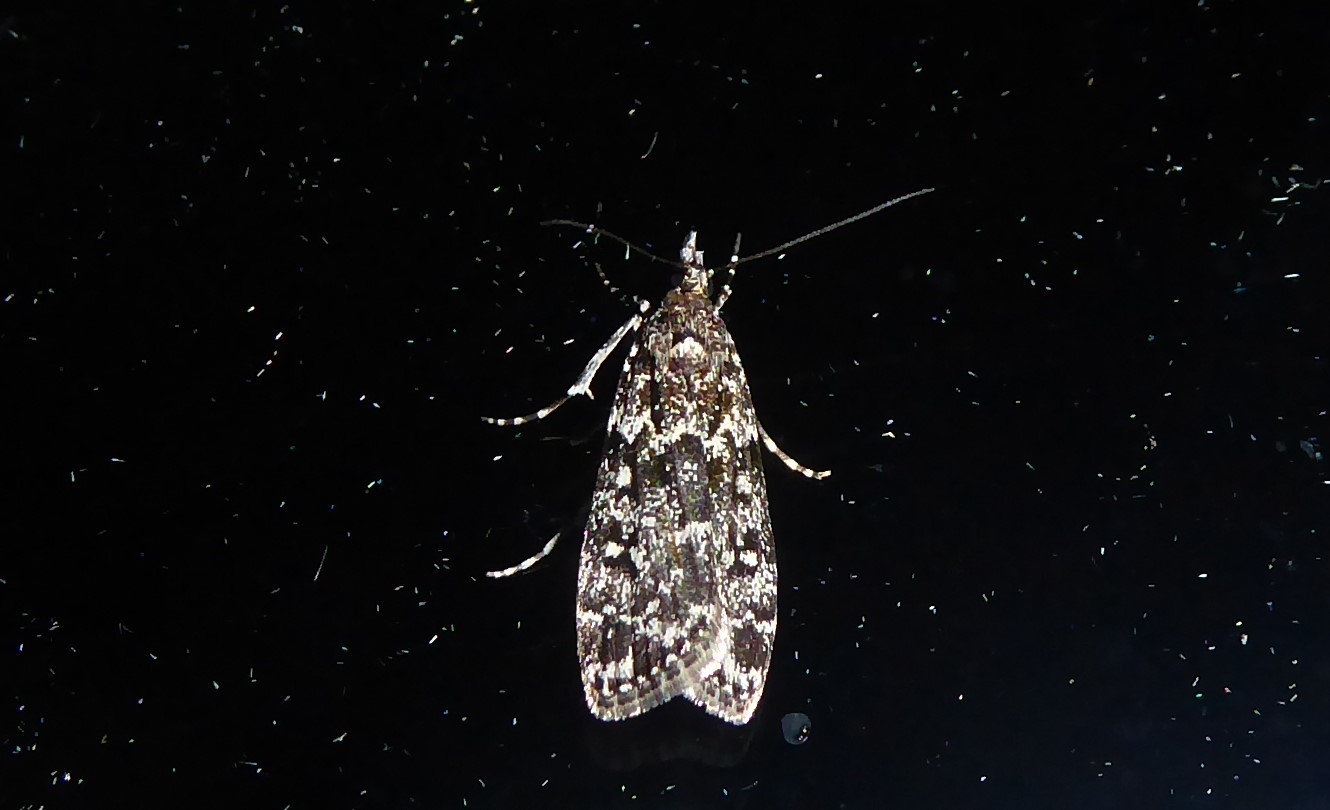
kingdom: Animalia
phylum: Arthropoda
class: Insecta
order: Lepidoptera
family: Crambidae
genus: Eudonia
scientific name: Eudonia philerga
